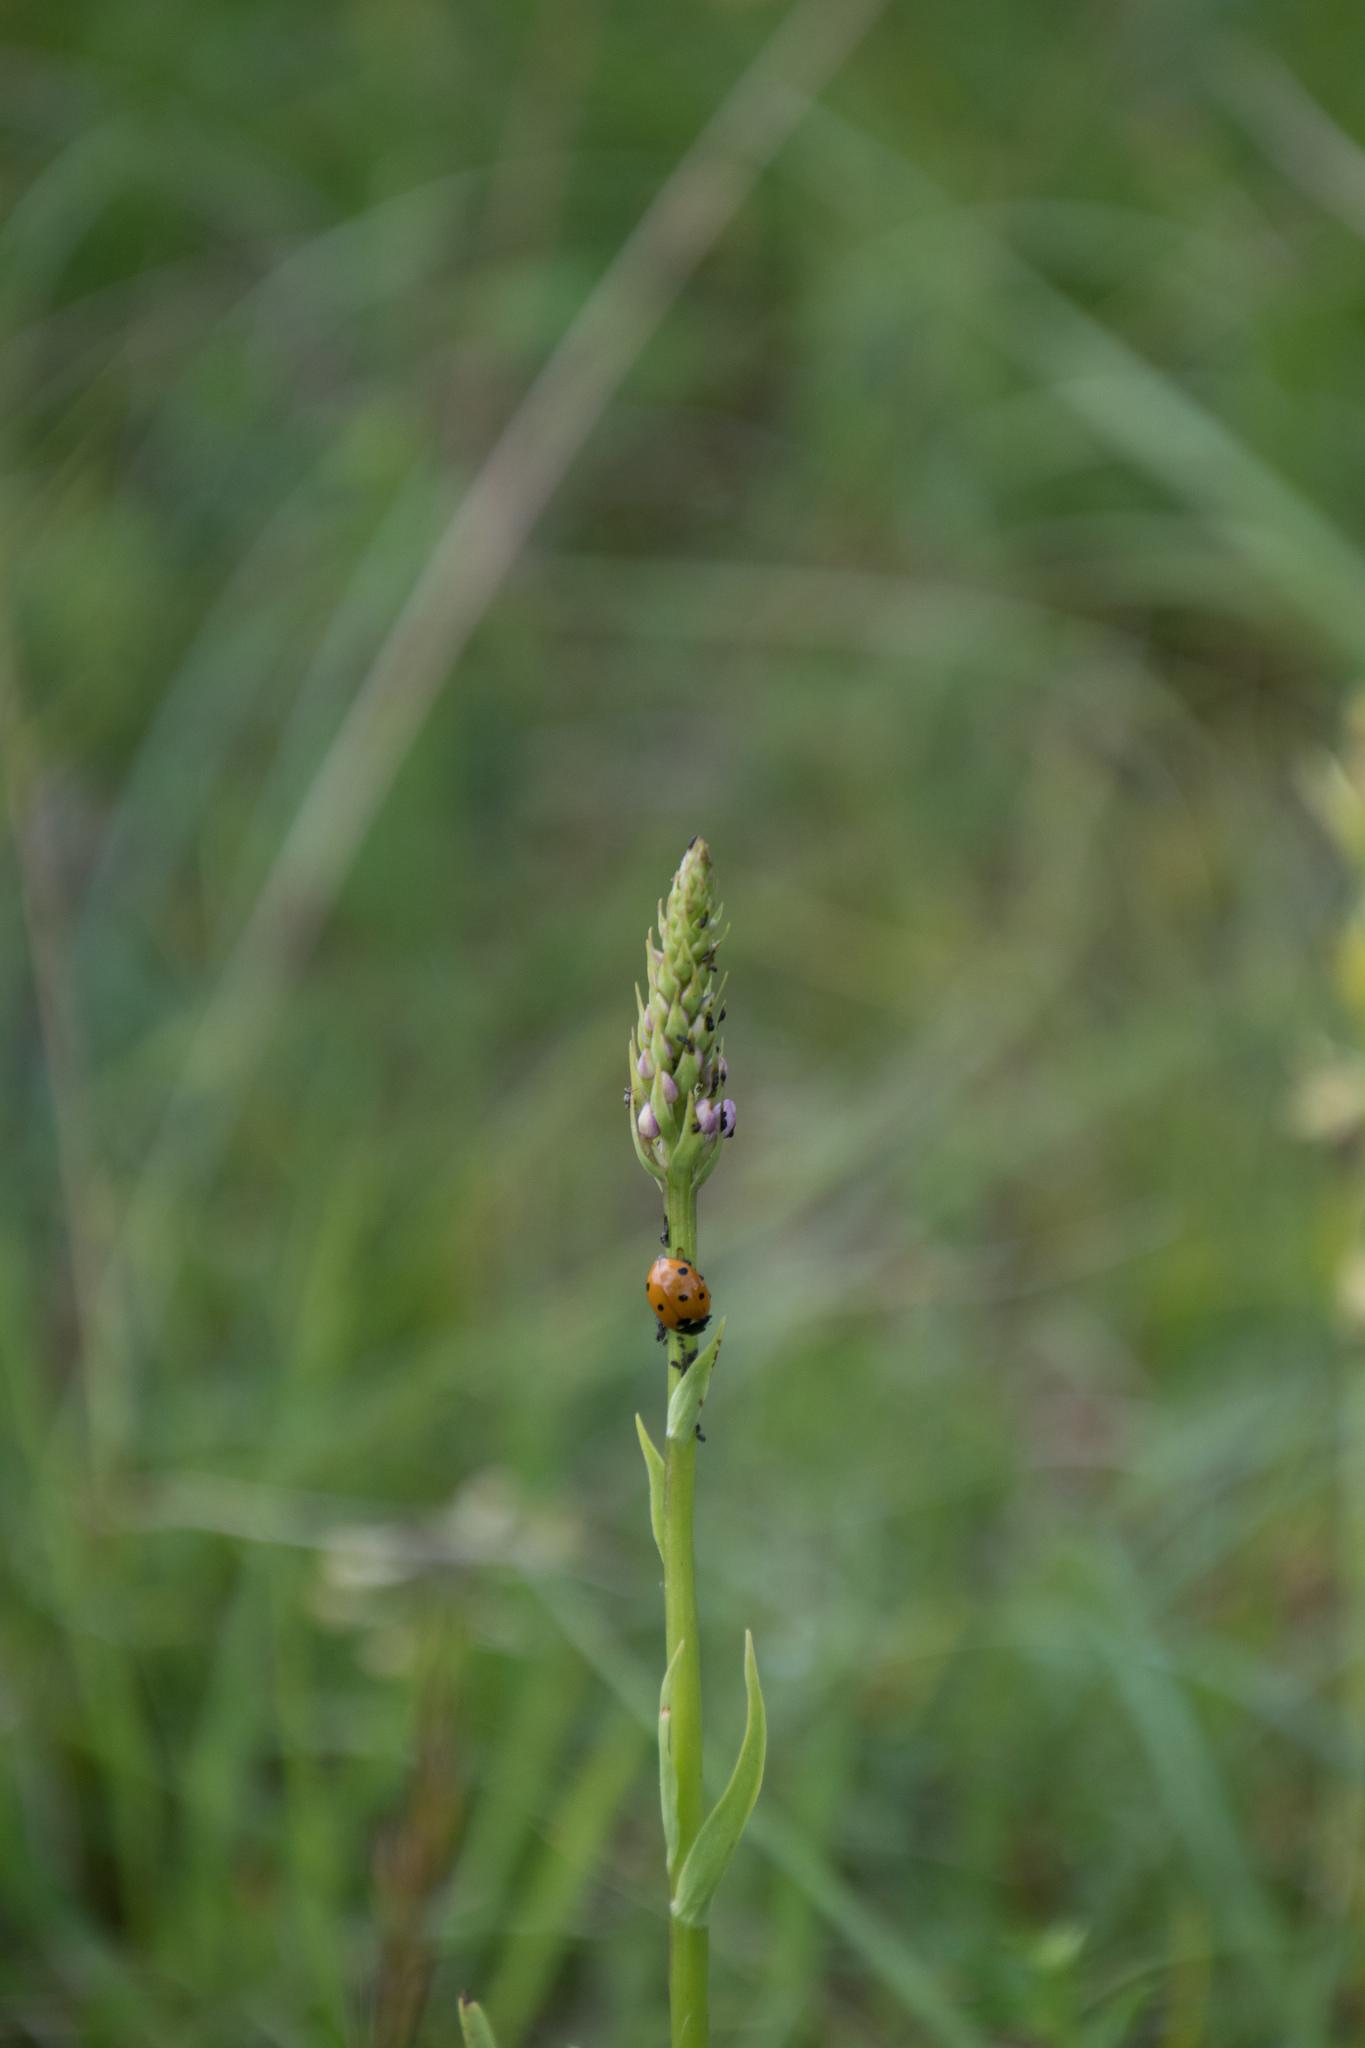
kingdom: Animalia
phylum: Arthropoda
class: Insecta
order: Coleoptera
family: Coccinellidae
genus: Coccinella
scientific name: Coccinella septempunctata
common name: Sevenspotted lady beetle
